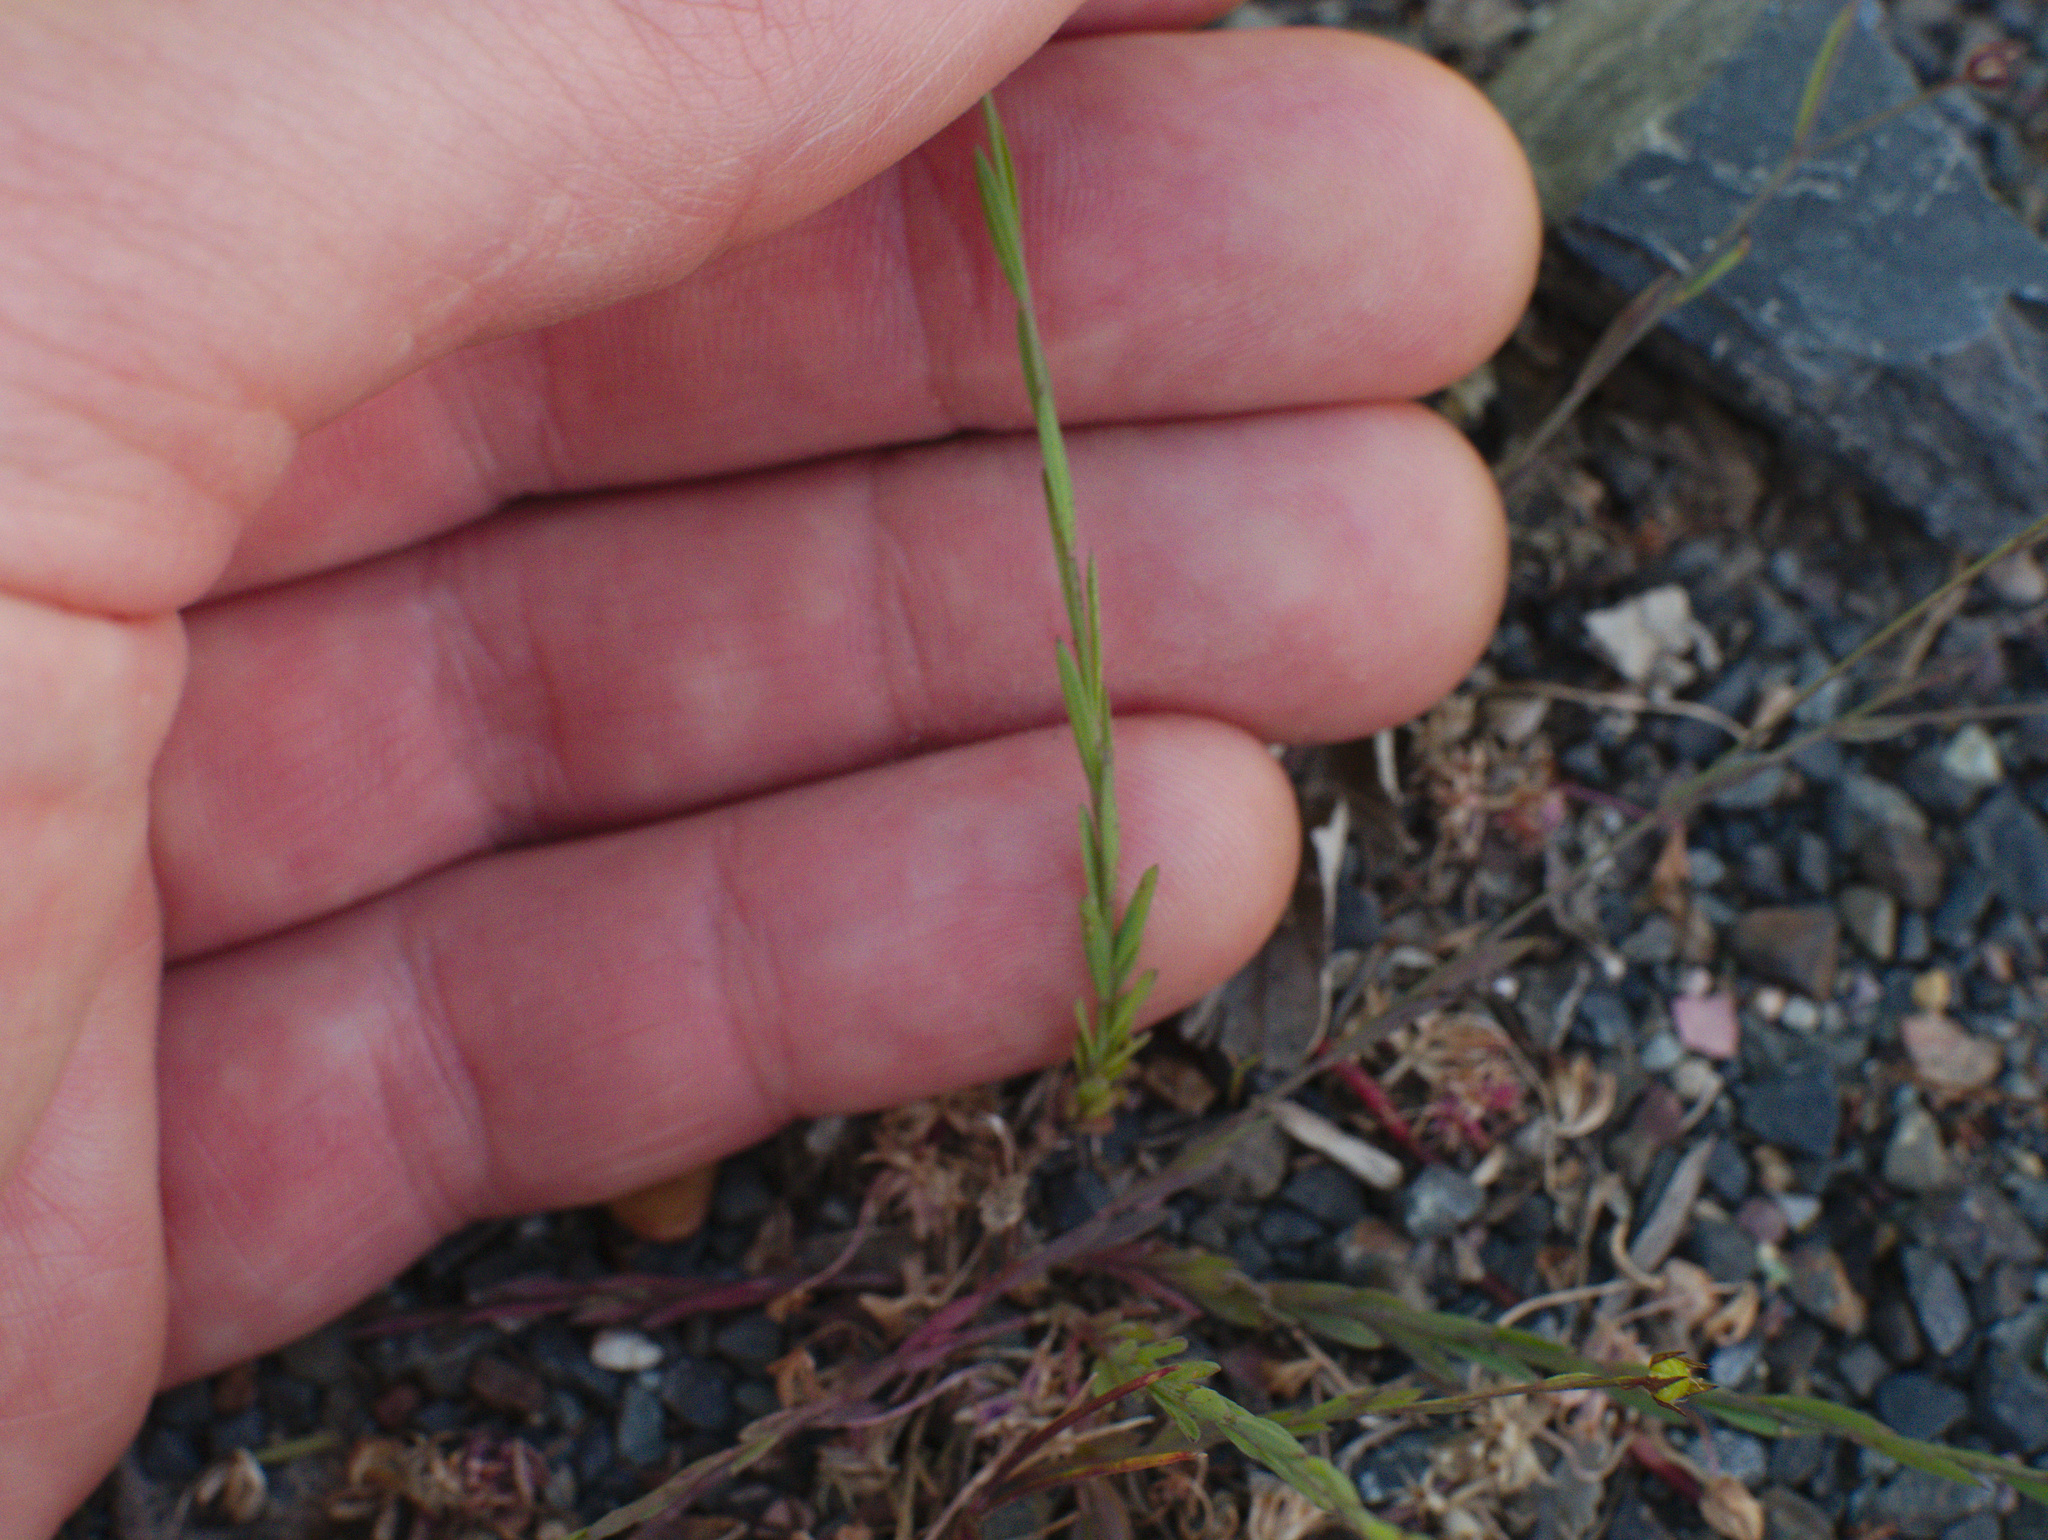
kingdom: Plantae
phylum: Tracheophyta
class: Magnoliopsida
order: Malpighiales
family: Linaceae
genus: Linum
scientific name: Linum trigynum
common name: French flax
